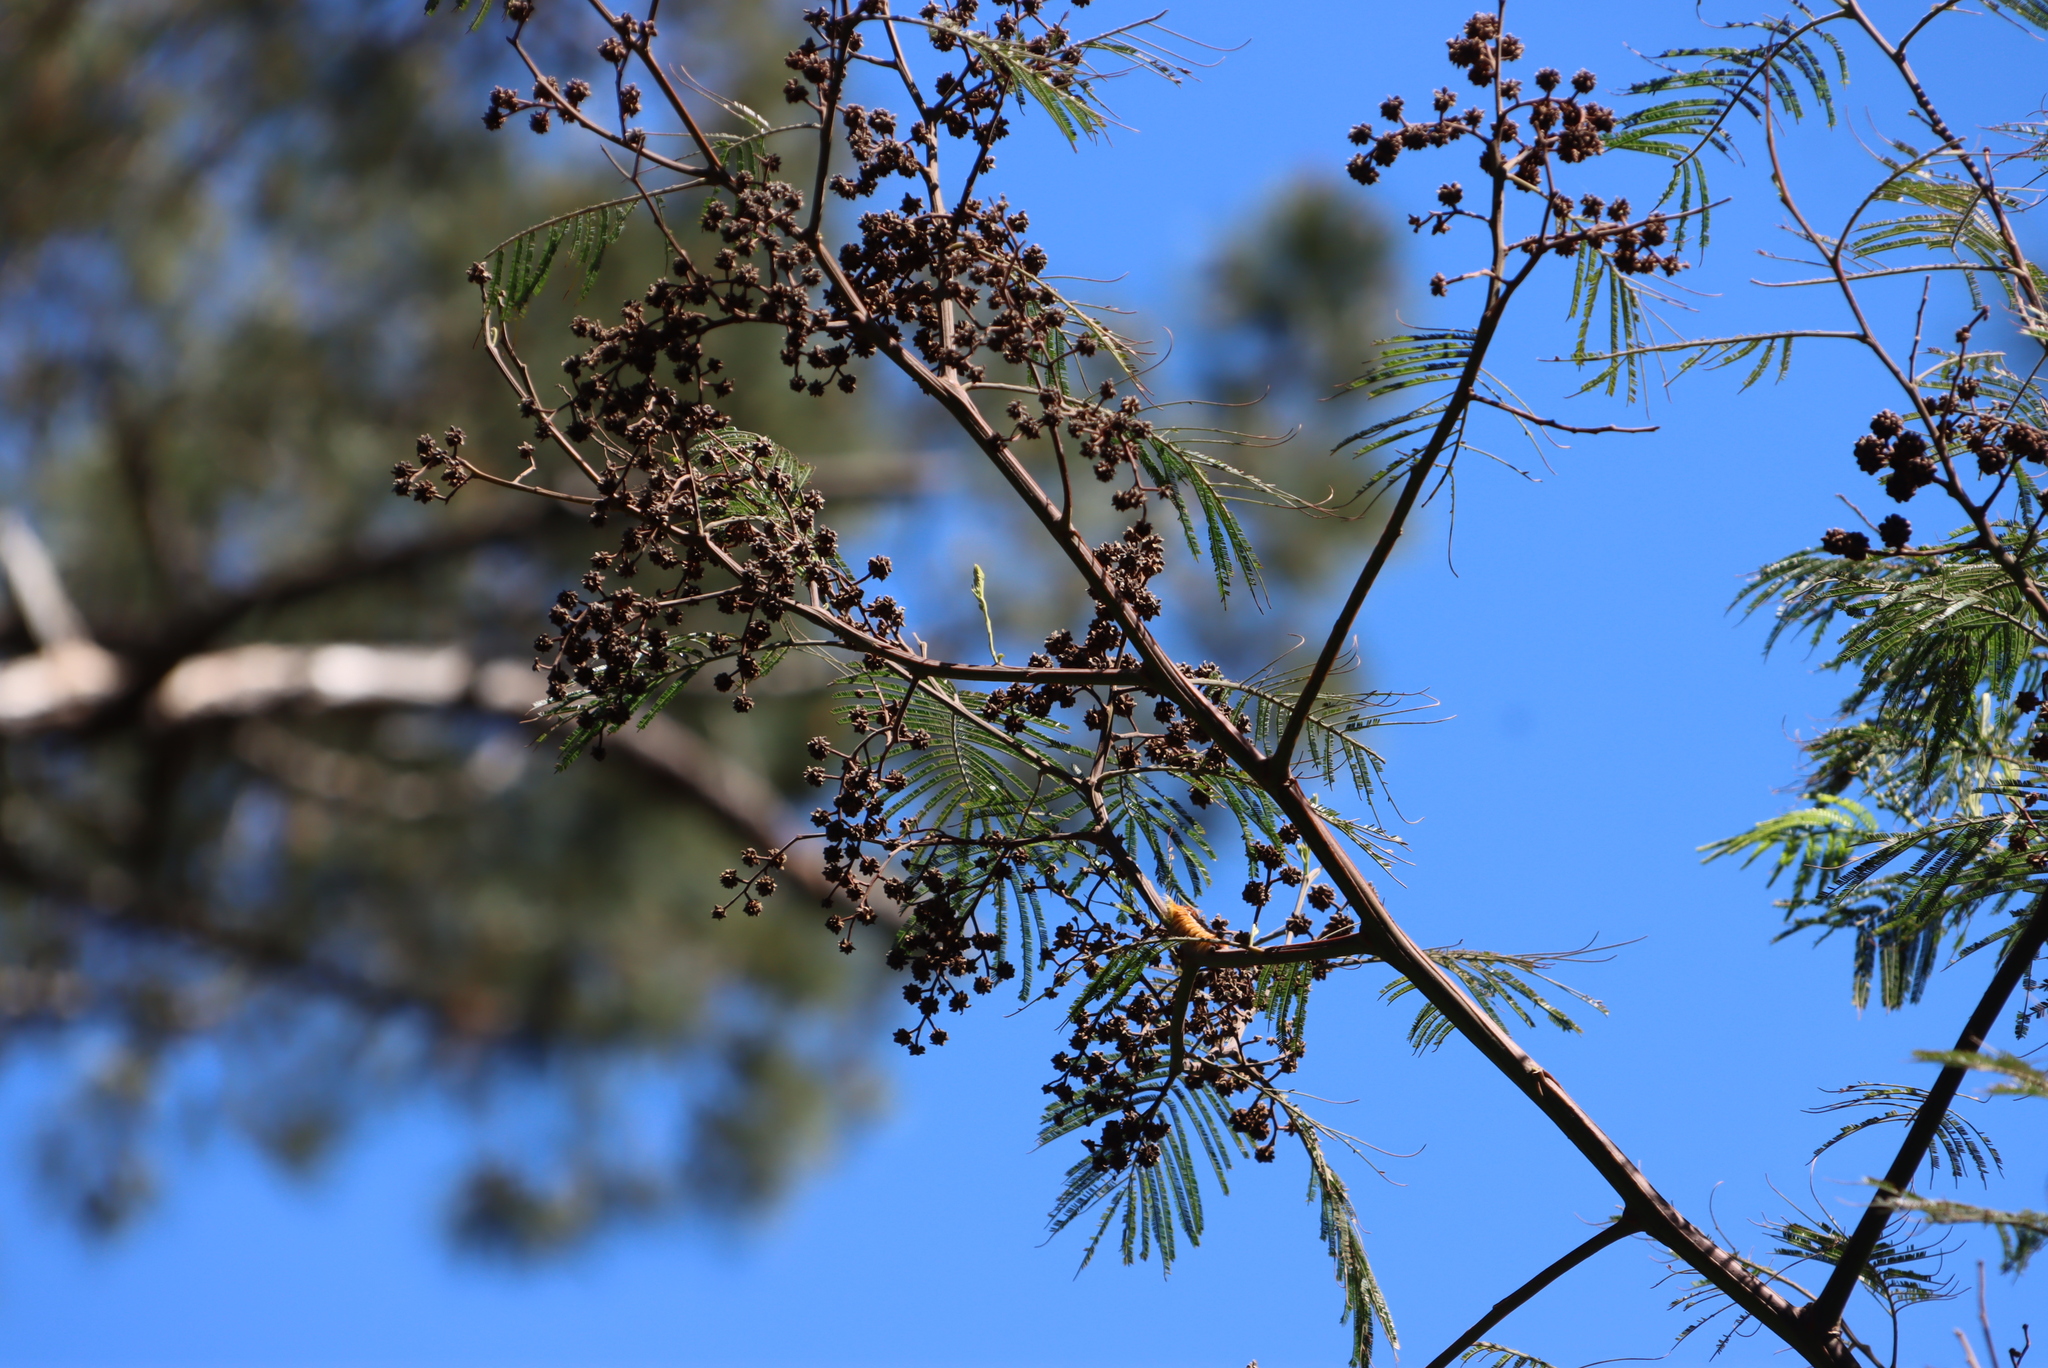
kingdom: Animalia
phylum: Arthropoda
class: Insecta
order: Diptera
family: Cecidomyiidae
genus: Dasineura
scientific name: Dasineura rubiformis
